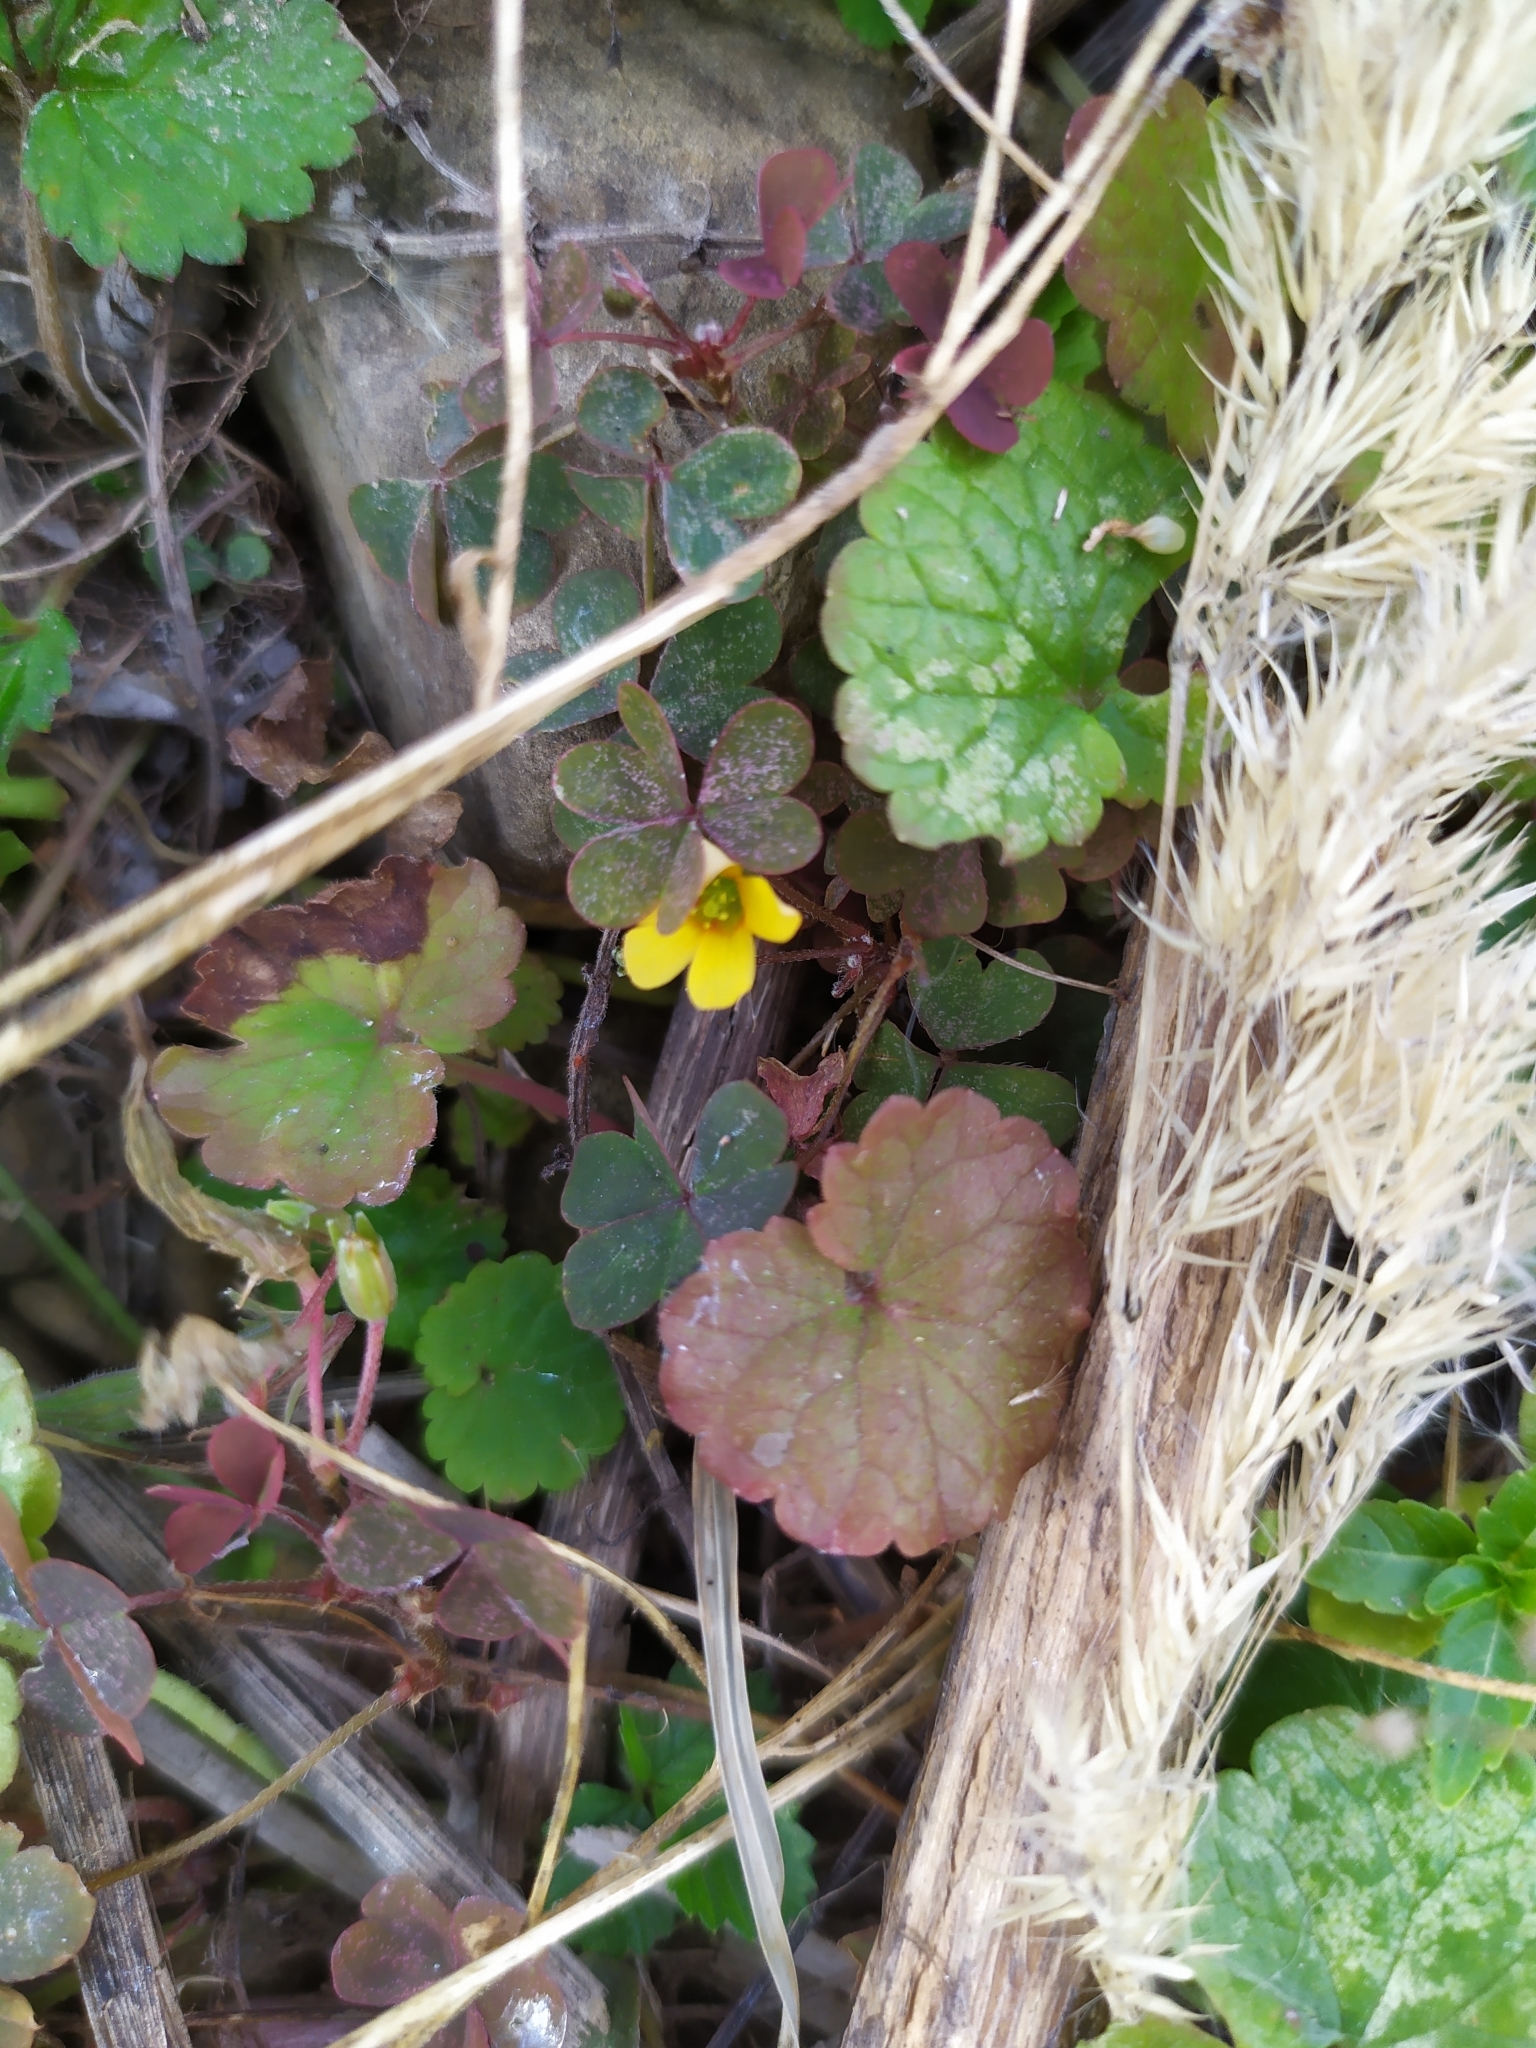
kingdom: Plantae
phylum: Tracheophyta
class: Magnoliopsida
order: Oxalidales
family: Oxalidaceae
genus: Oxalis
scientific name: Oxalis corniculata
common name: Procumbent yellow-sorrel
